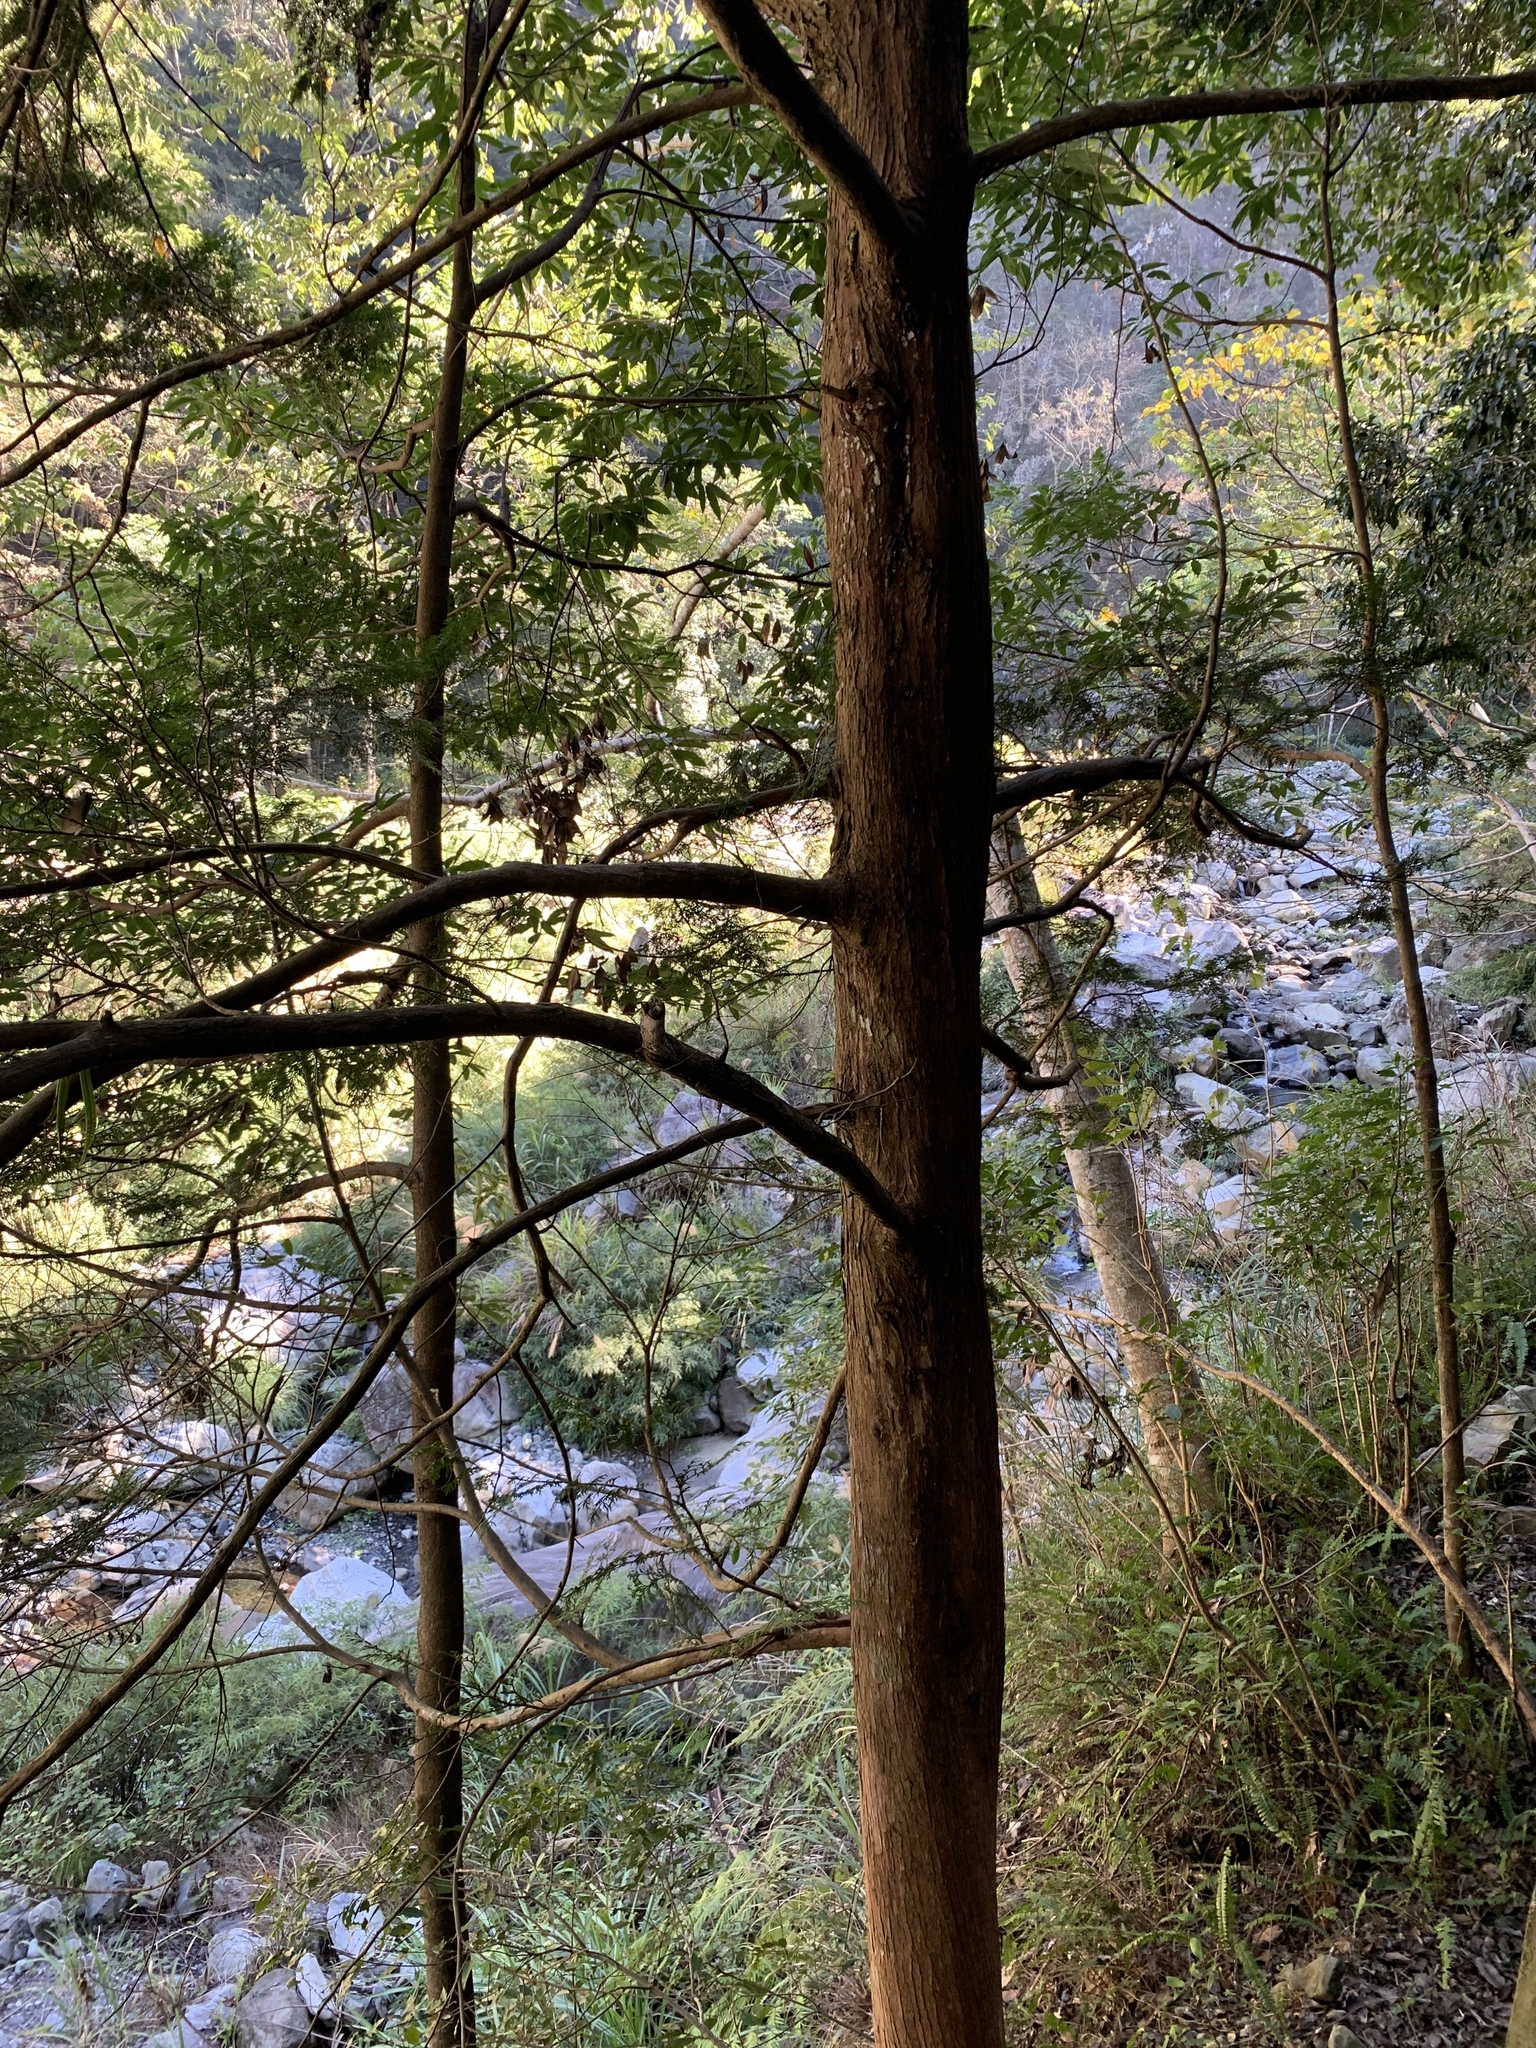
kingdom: Plantae
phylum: Tracheophyta
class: Pinopsida
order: Pinales
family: Cupressaceae
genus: Calocedrus
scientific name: Calocedrus formosana
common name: Taiwan incense-cedar
